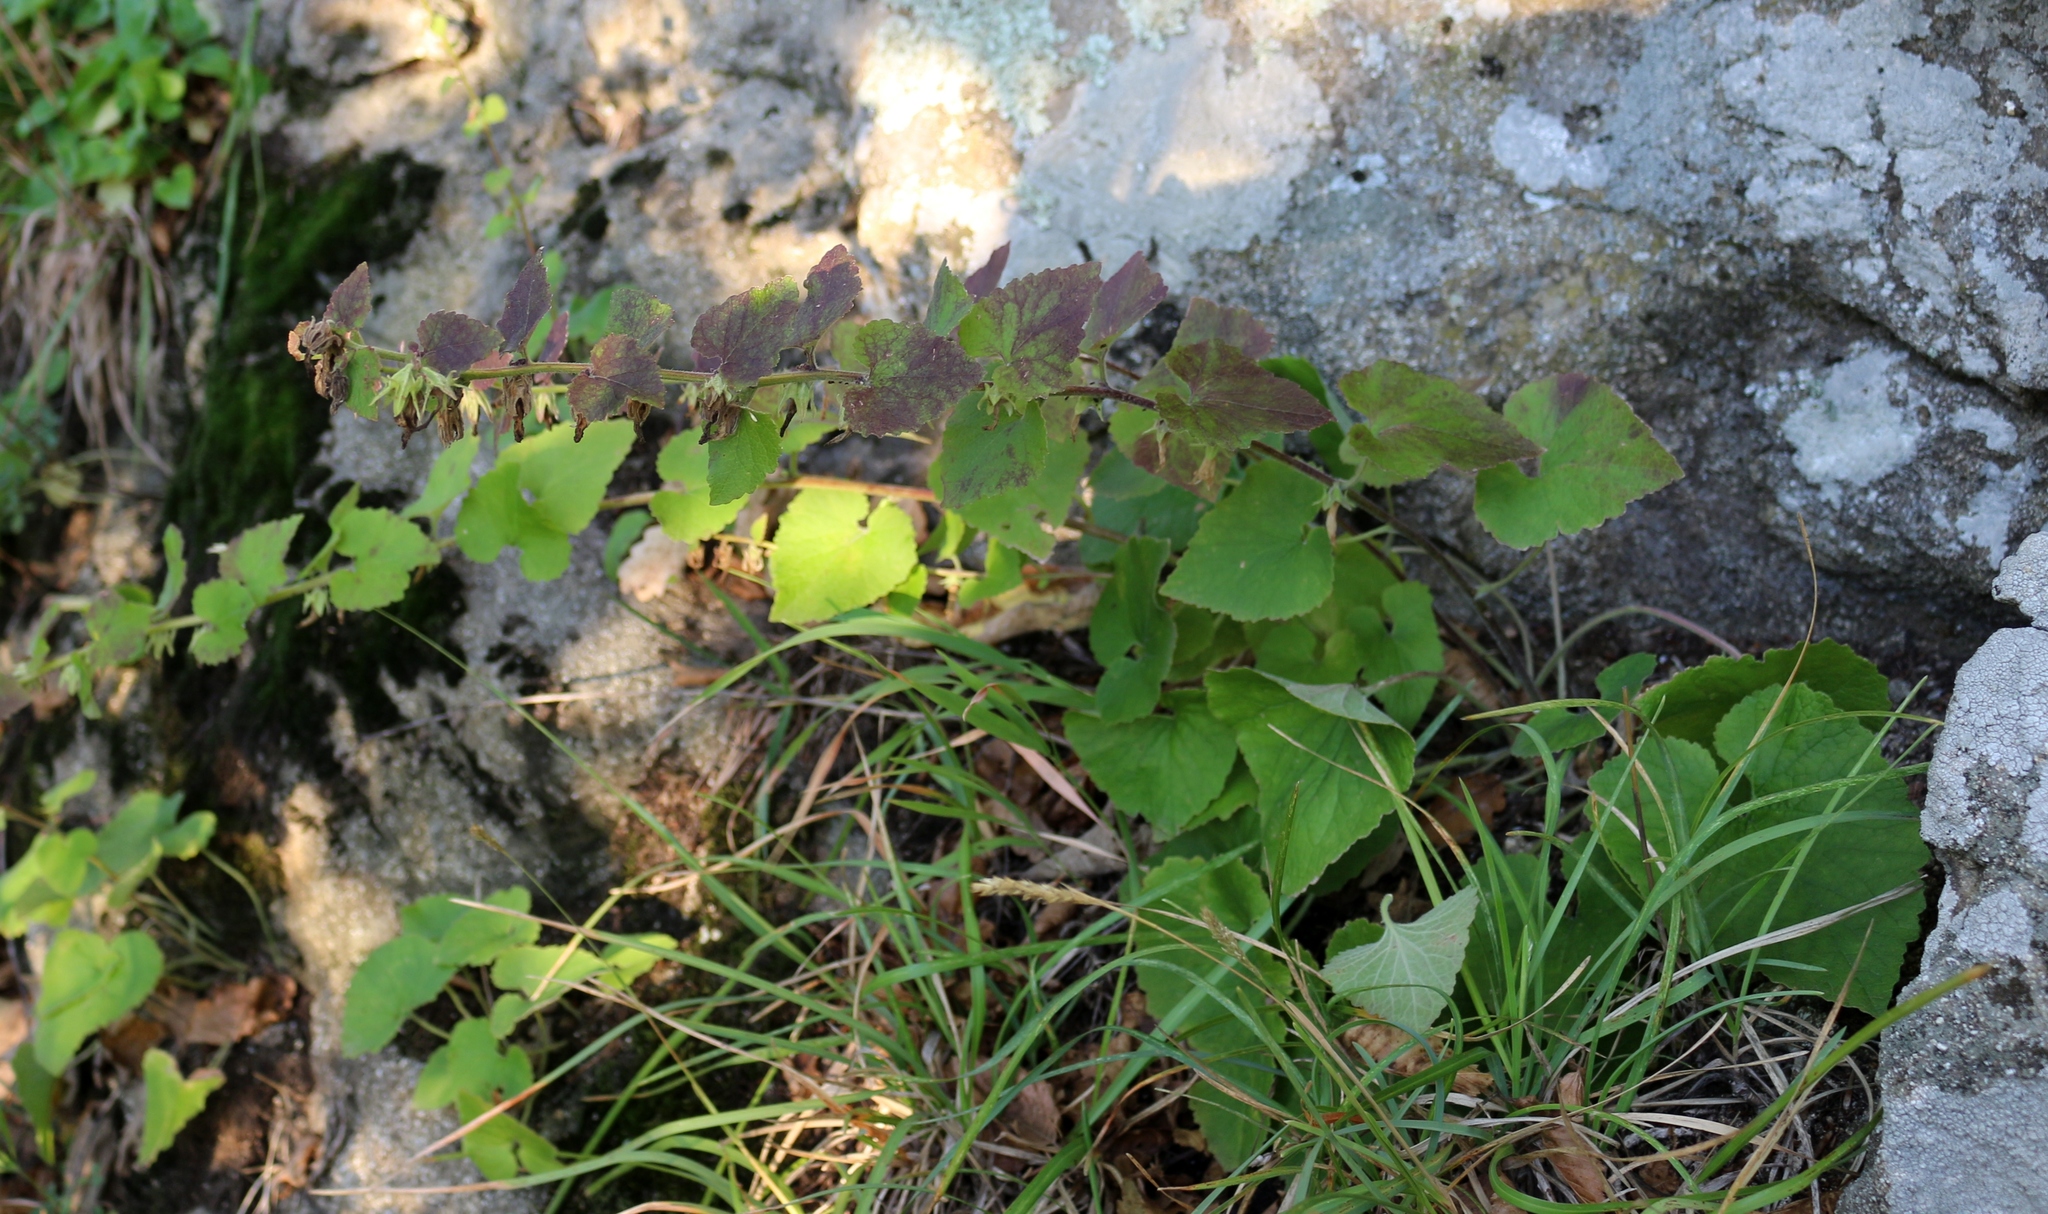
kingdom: Plantae
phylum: Tracheophyta
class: Magnoliopsida
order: Asterales
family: Campanulaceae
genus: Campanula
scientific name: Campanula alliariifolia
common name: Cornish bellflower
